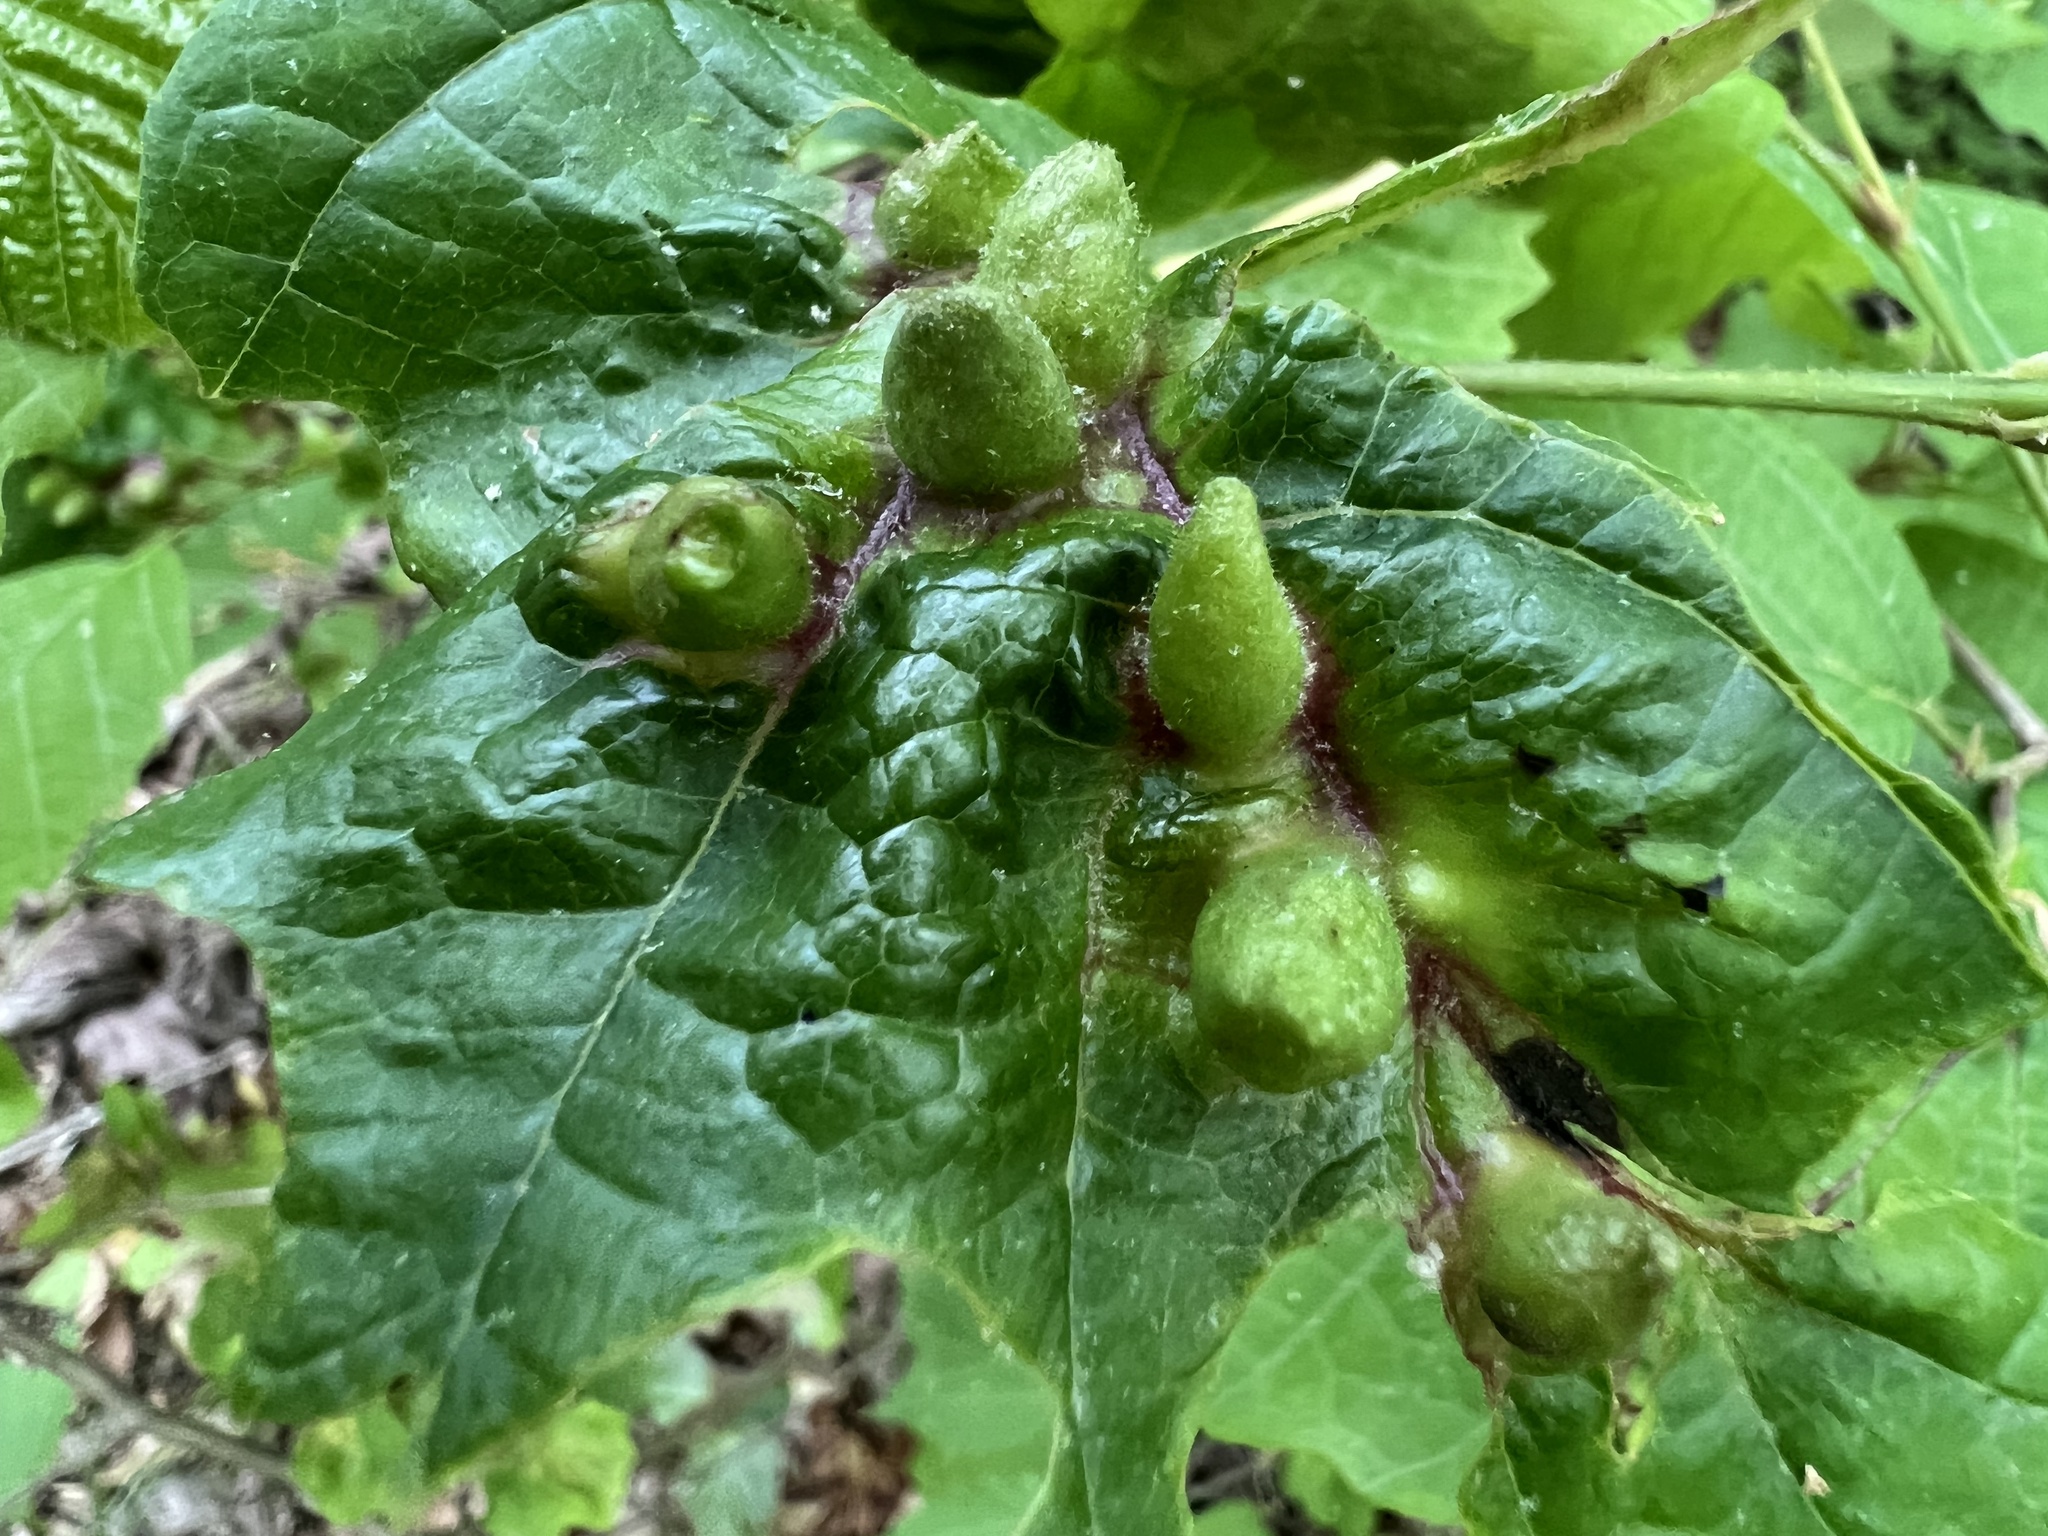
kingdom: Animalia
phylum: Arthropoda
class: Insecta
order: Hemiptera
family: Aphididae
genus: Hormaphis
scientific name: Hormaphis hamamelidis
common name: Witch-hazel cone gall aphid
